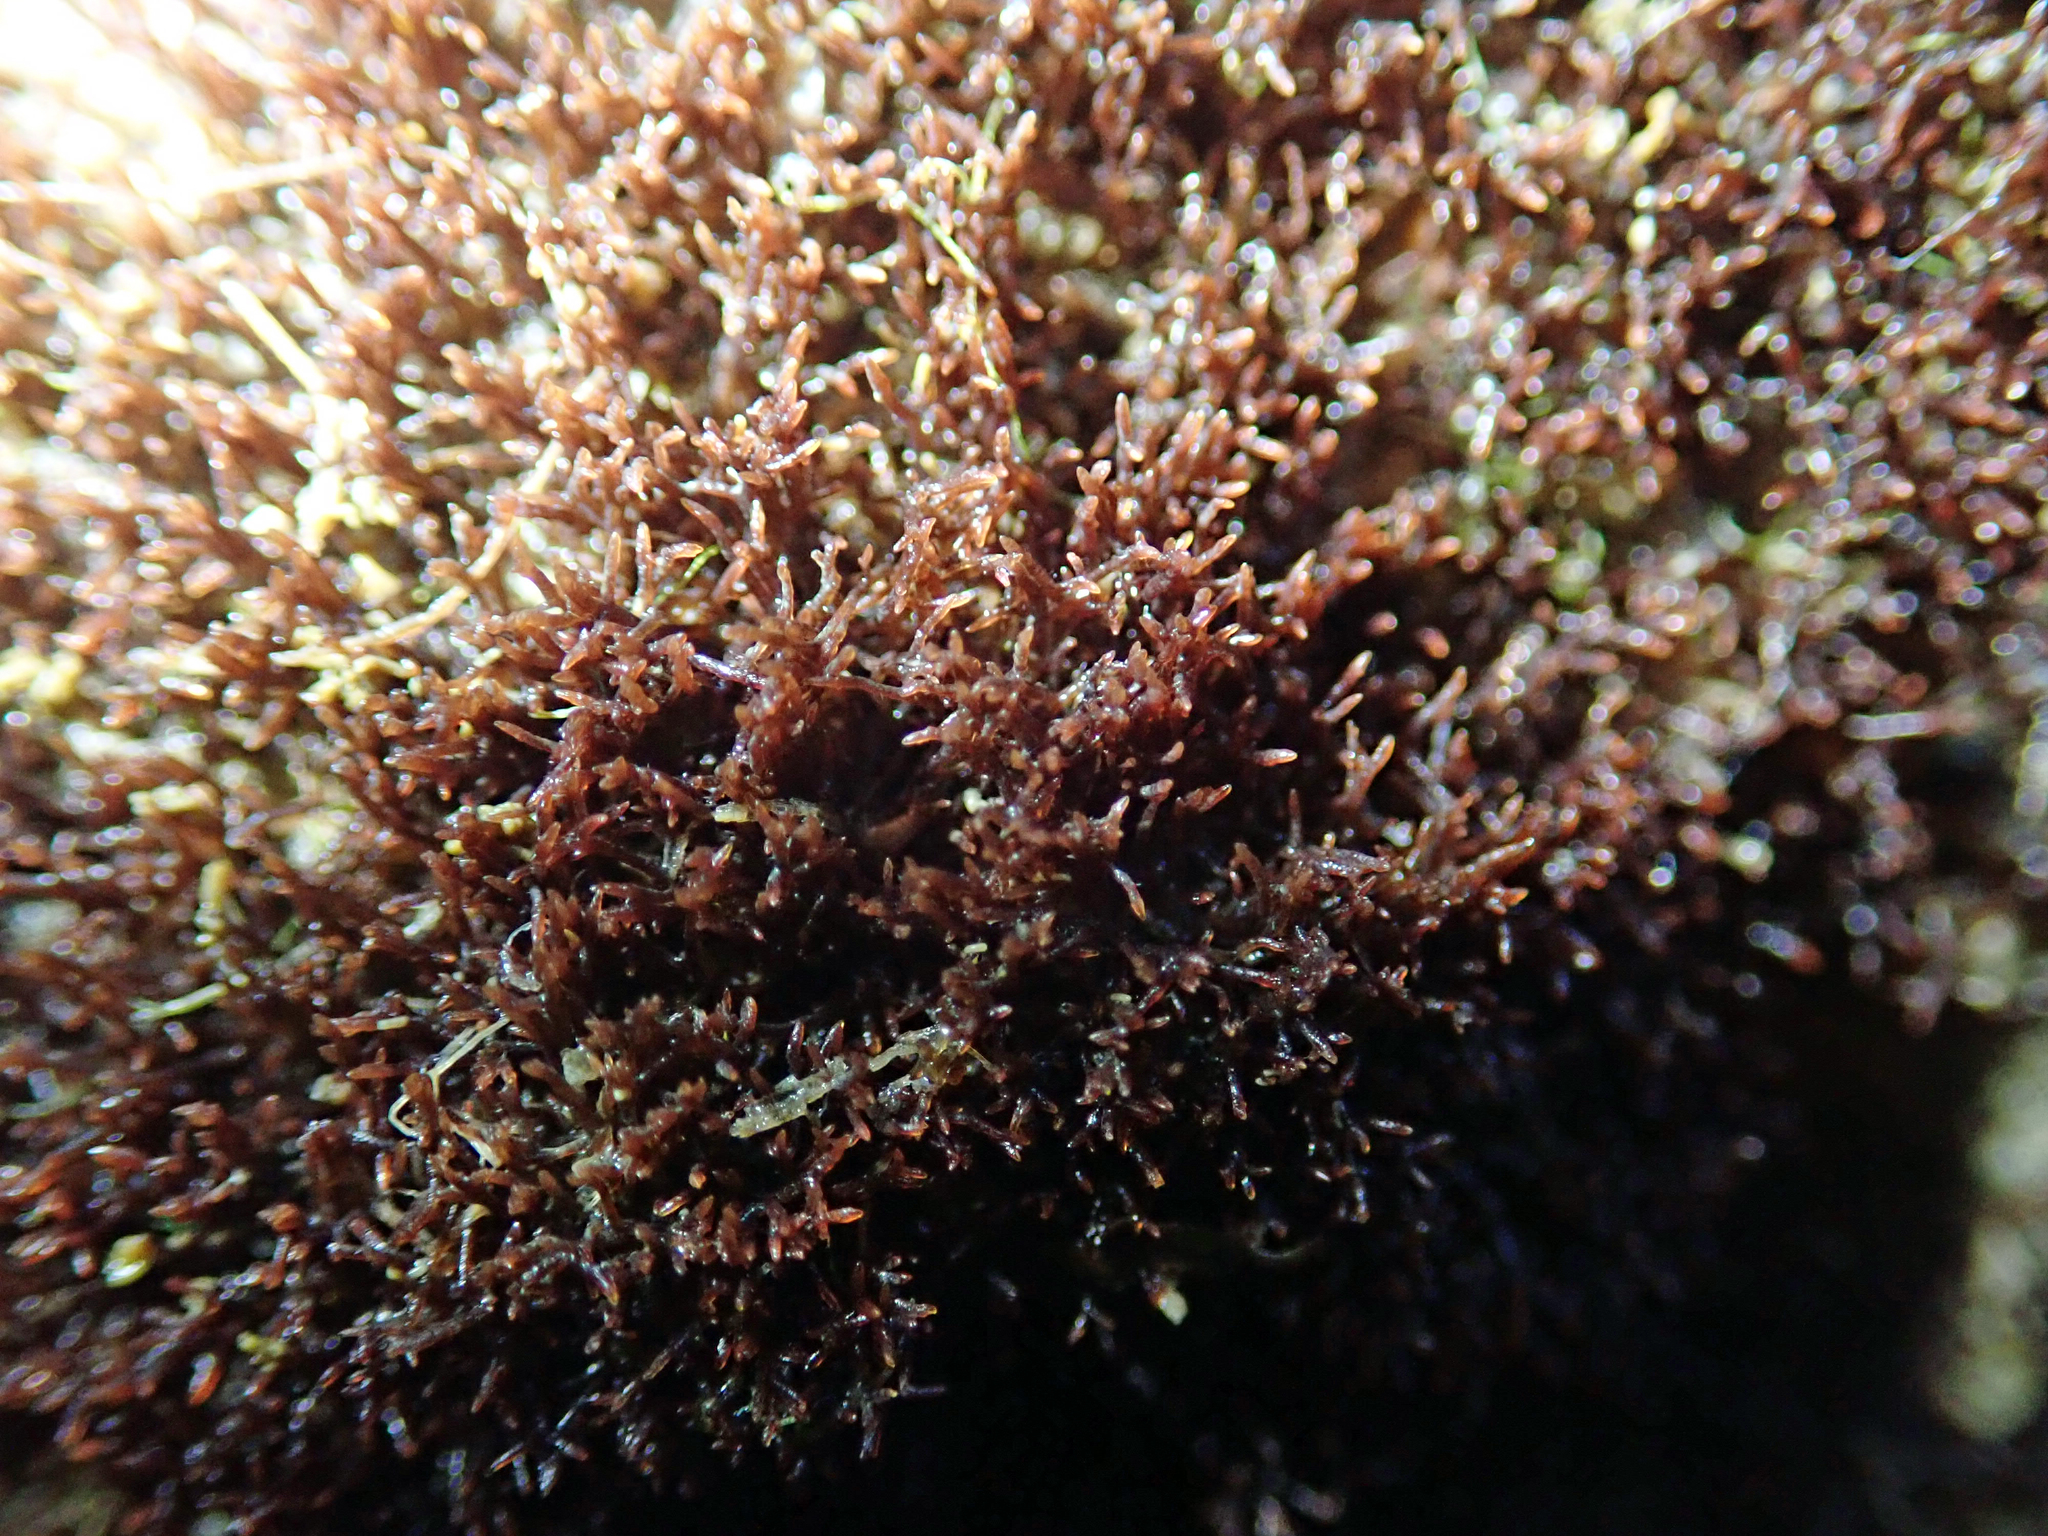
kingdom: Plantae
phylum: Rhodophyta
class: Florideophyceae
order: Gelidiales
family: Gelidiaceae
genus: Capreolia
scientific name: Capreolia implexa
